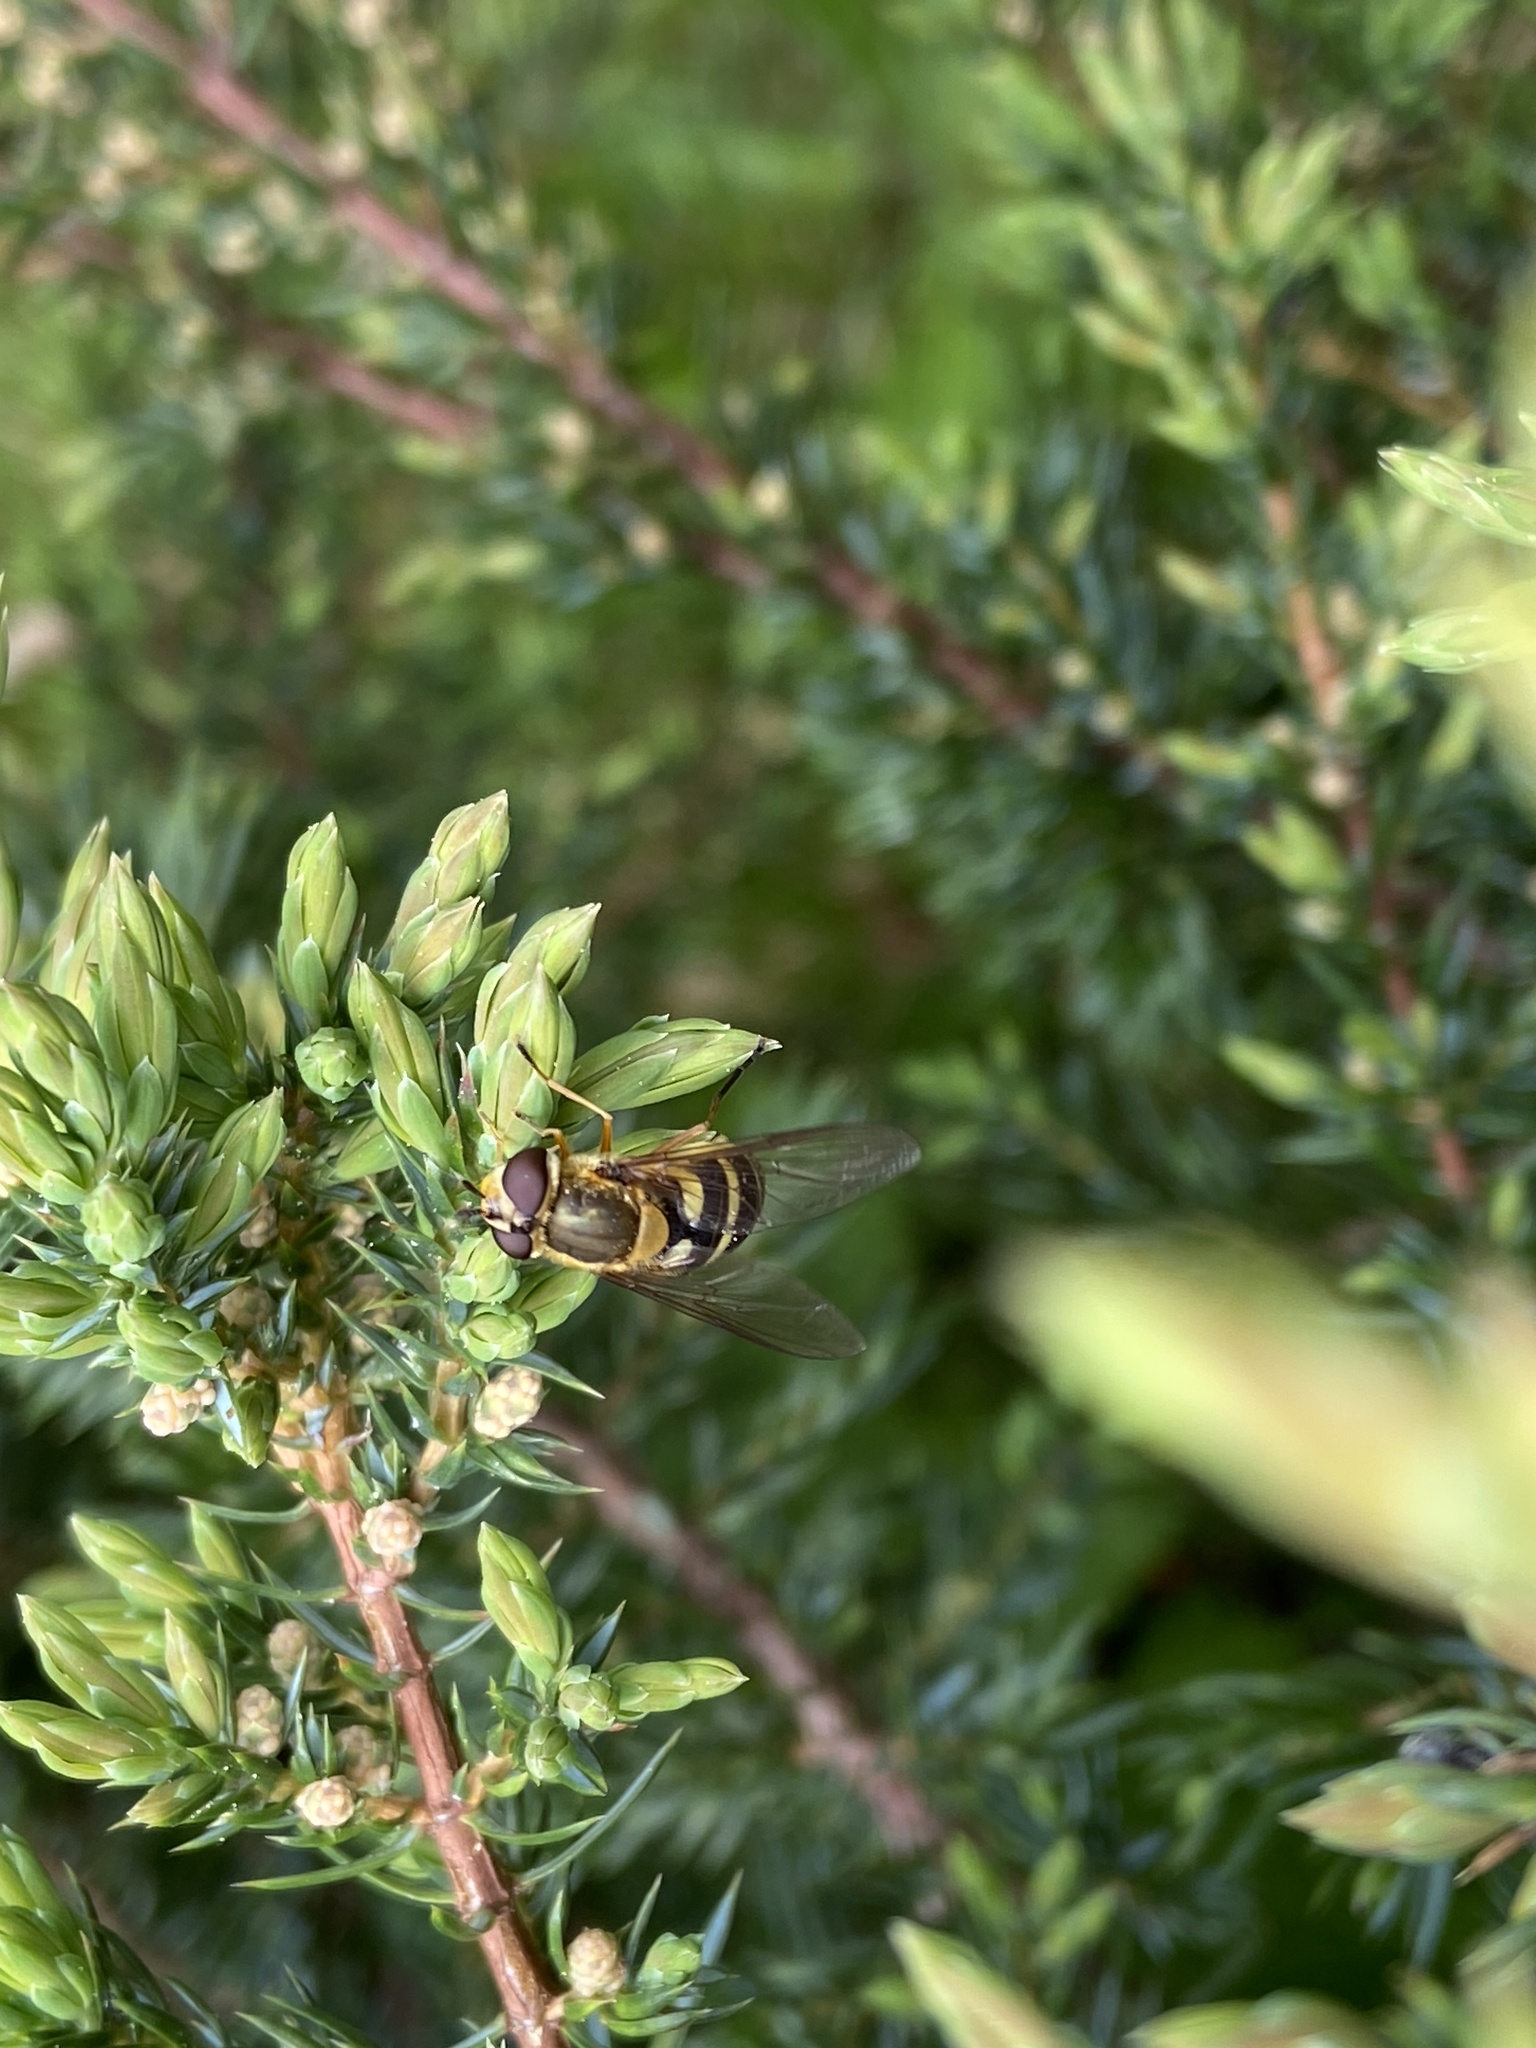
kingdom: Animalia
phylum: Arthropoda
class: Insecta
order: Diptera
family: Syrphidae
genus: Syrphus
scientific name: Syrphus ribesii
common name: Common flower fly
